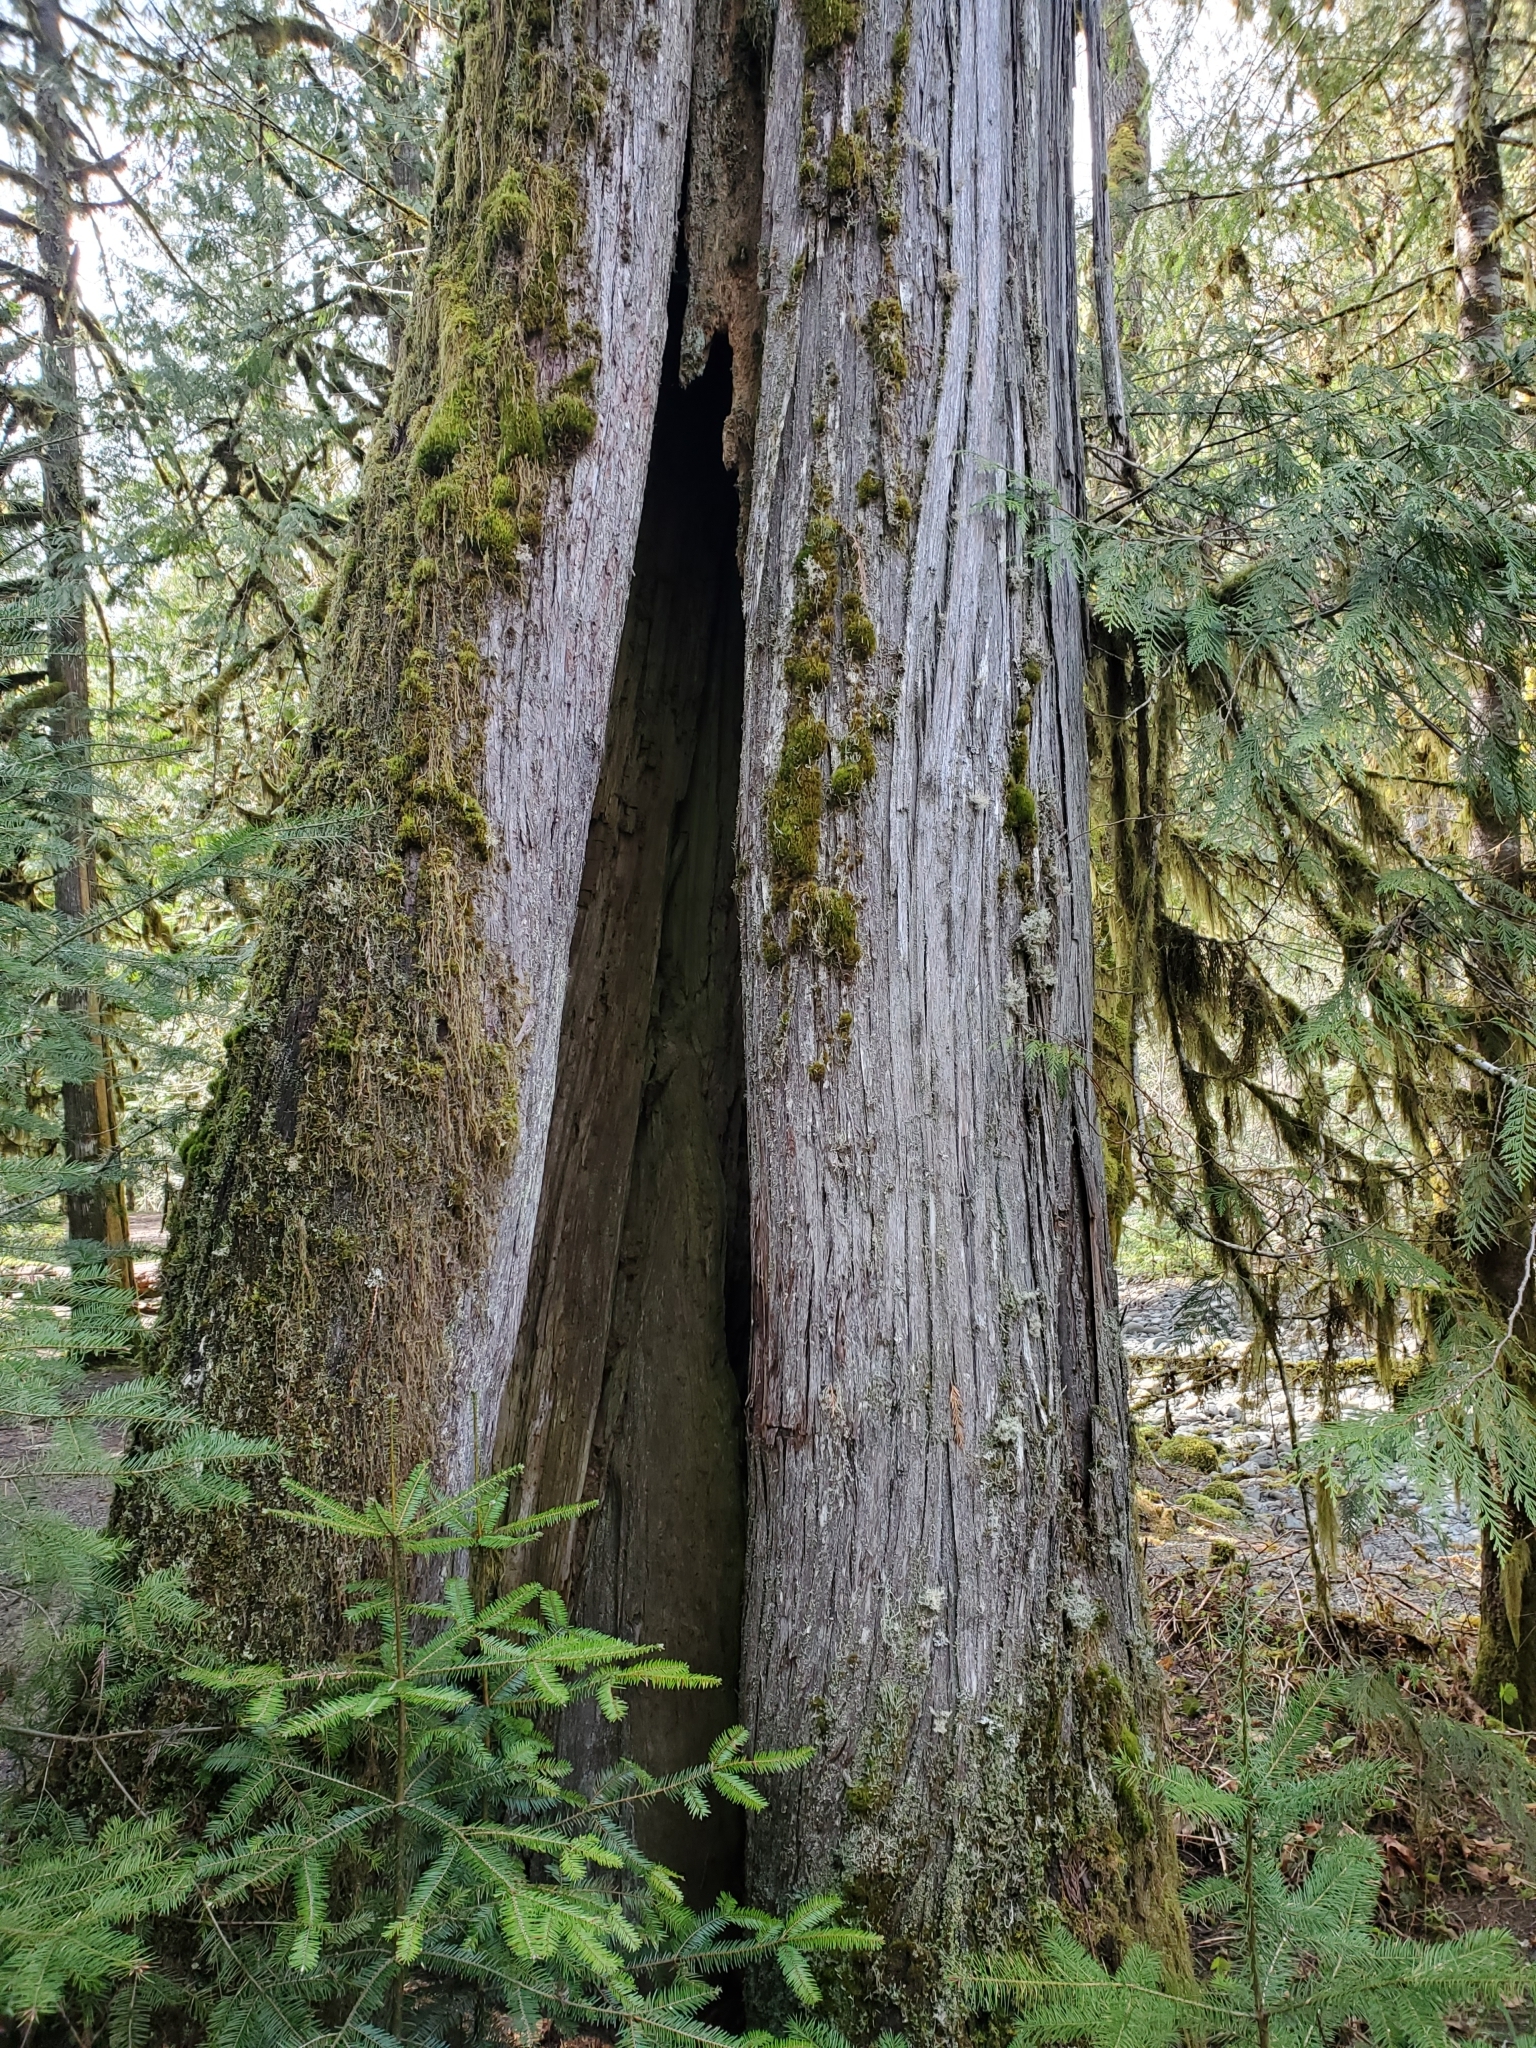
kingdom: Plantae
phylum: Tracheophyta
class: Pinopsida
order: Pinales
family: Cupressaceae
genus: Thuja
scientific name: Thuja plicata
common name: Western red-cedar
